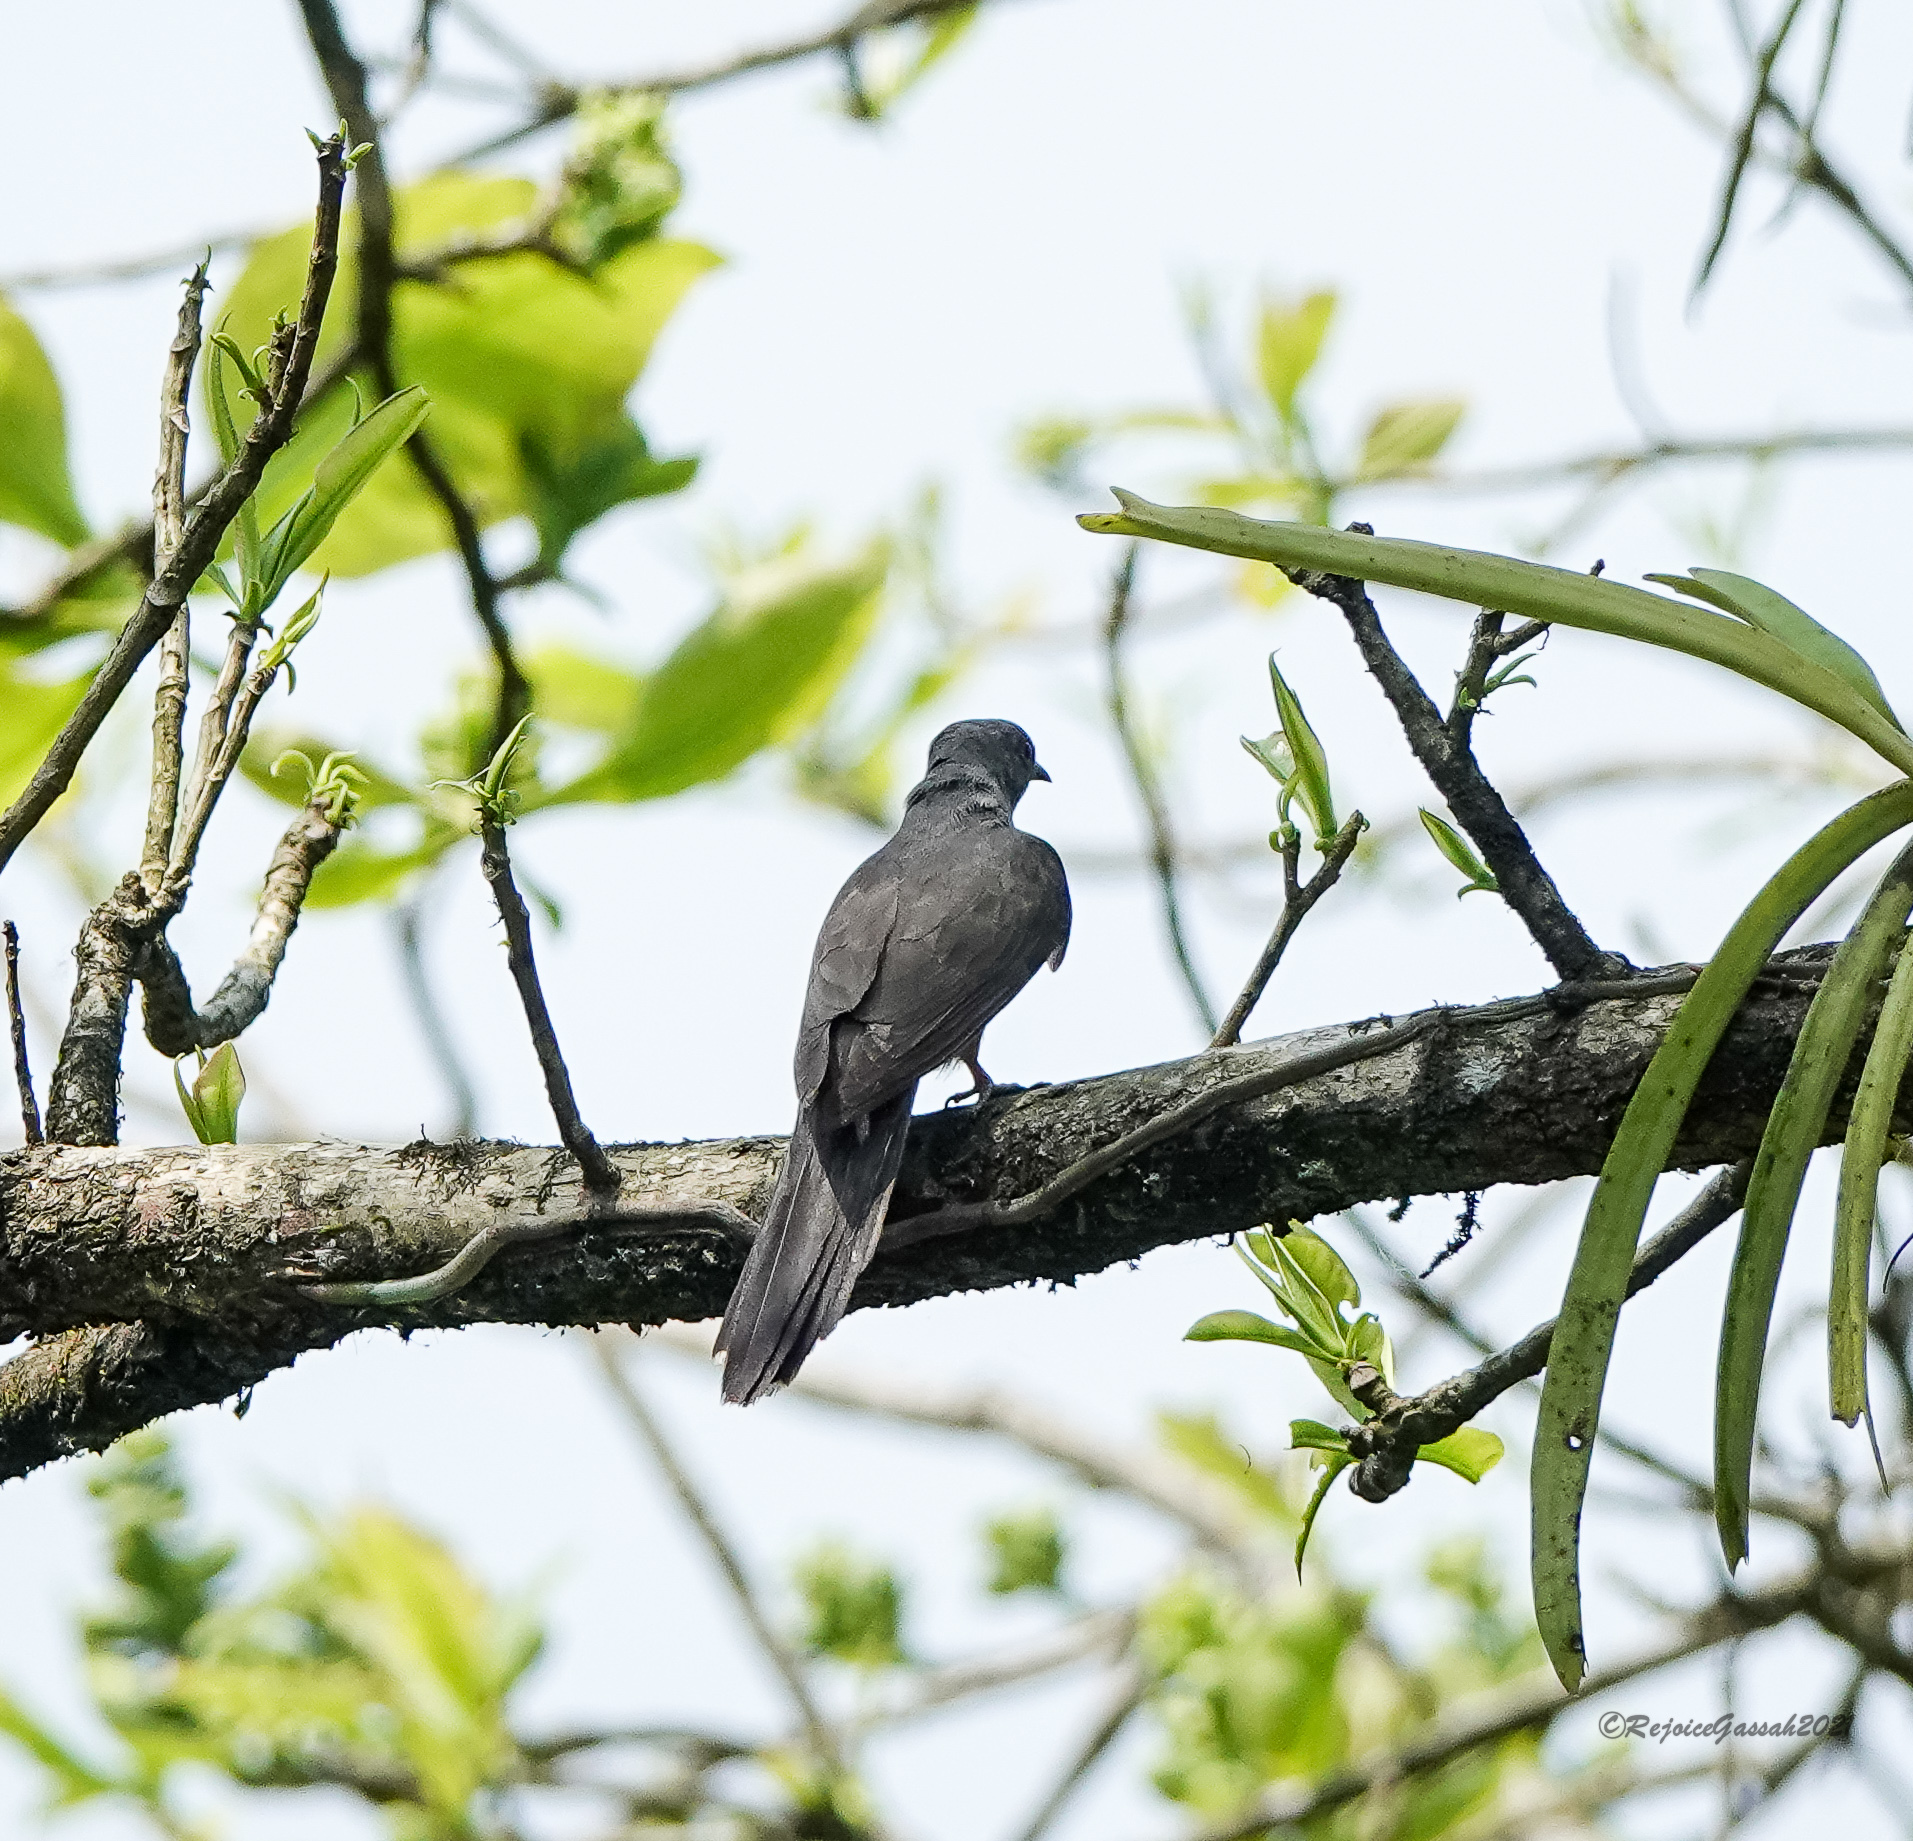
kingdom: Animalia
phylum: Chordata
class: Aves
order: Cuculiformes
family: Cuculidae
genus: Cacomantis
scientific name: Cacomantis passerinus
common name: Grey-bellied cuckoo
